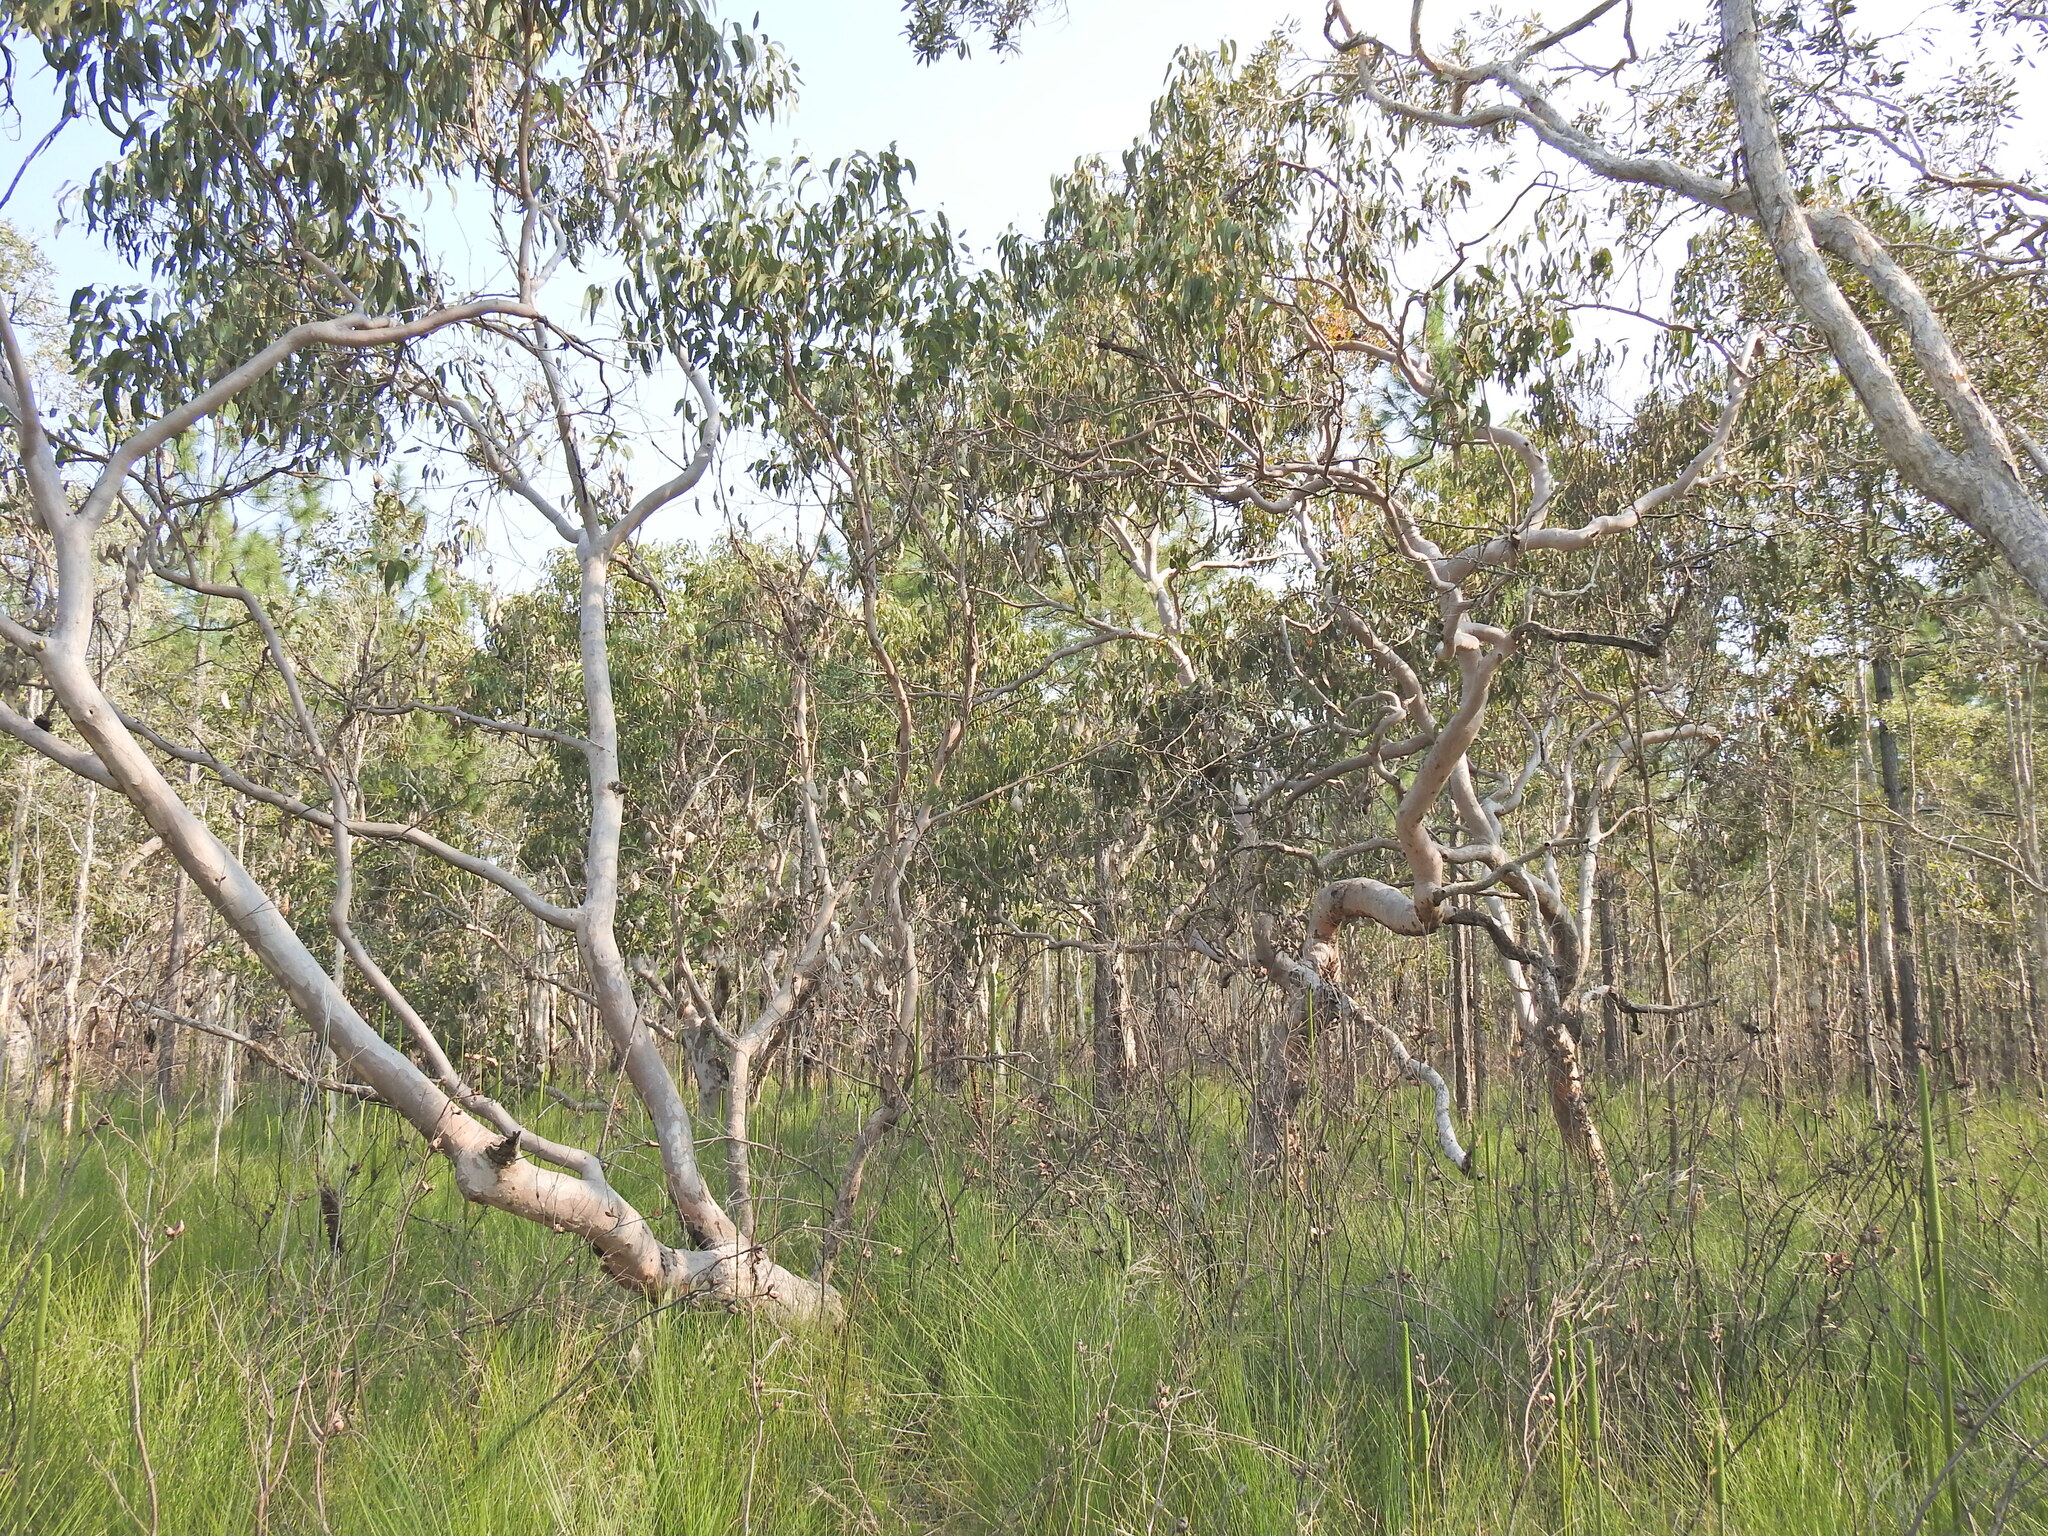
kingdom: Plantae
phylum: Tracheophyta
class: Magnoliopsida
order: Myrtales
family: Myrtaceae
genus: Eucalyptus
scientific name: Eucalyptus bancroftii
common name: Blue gum
